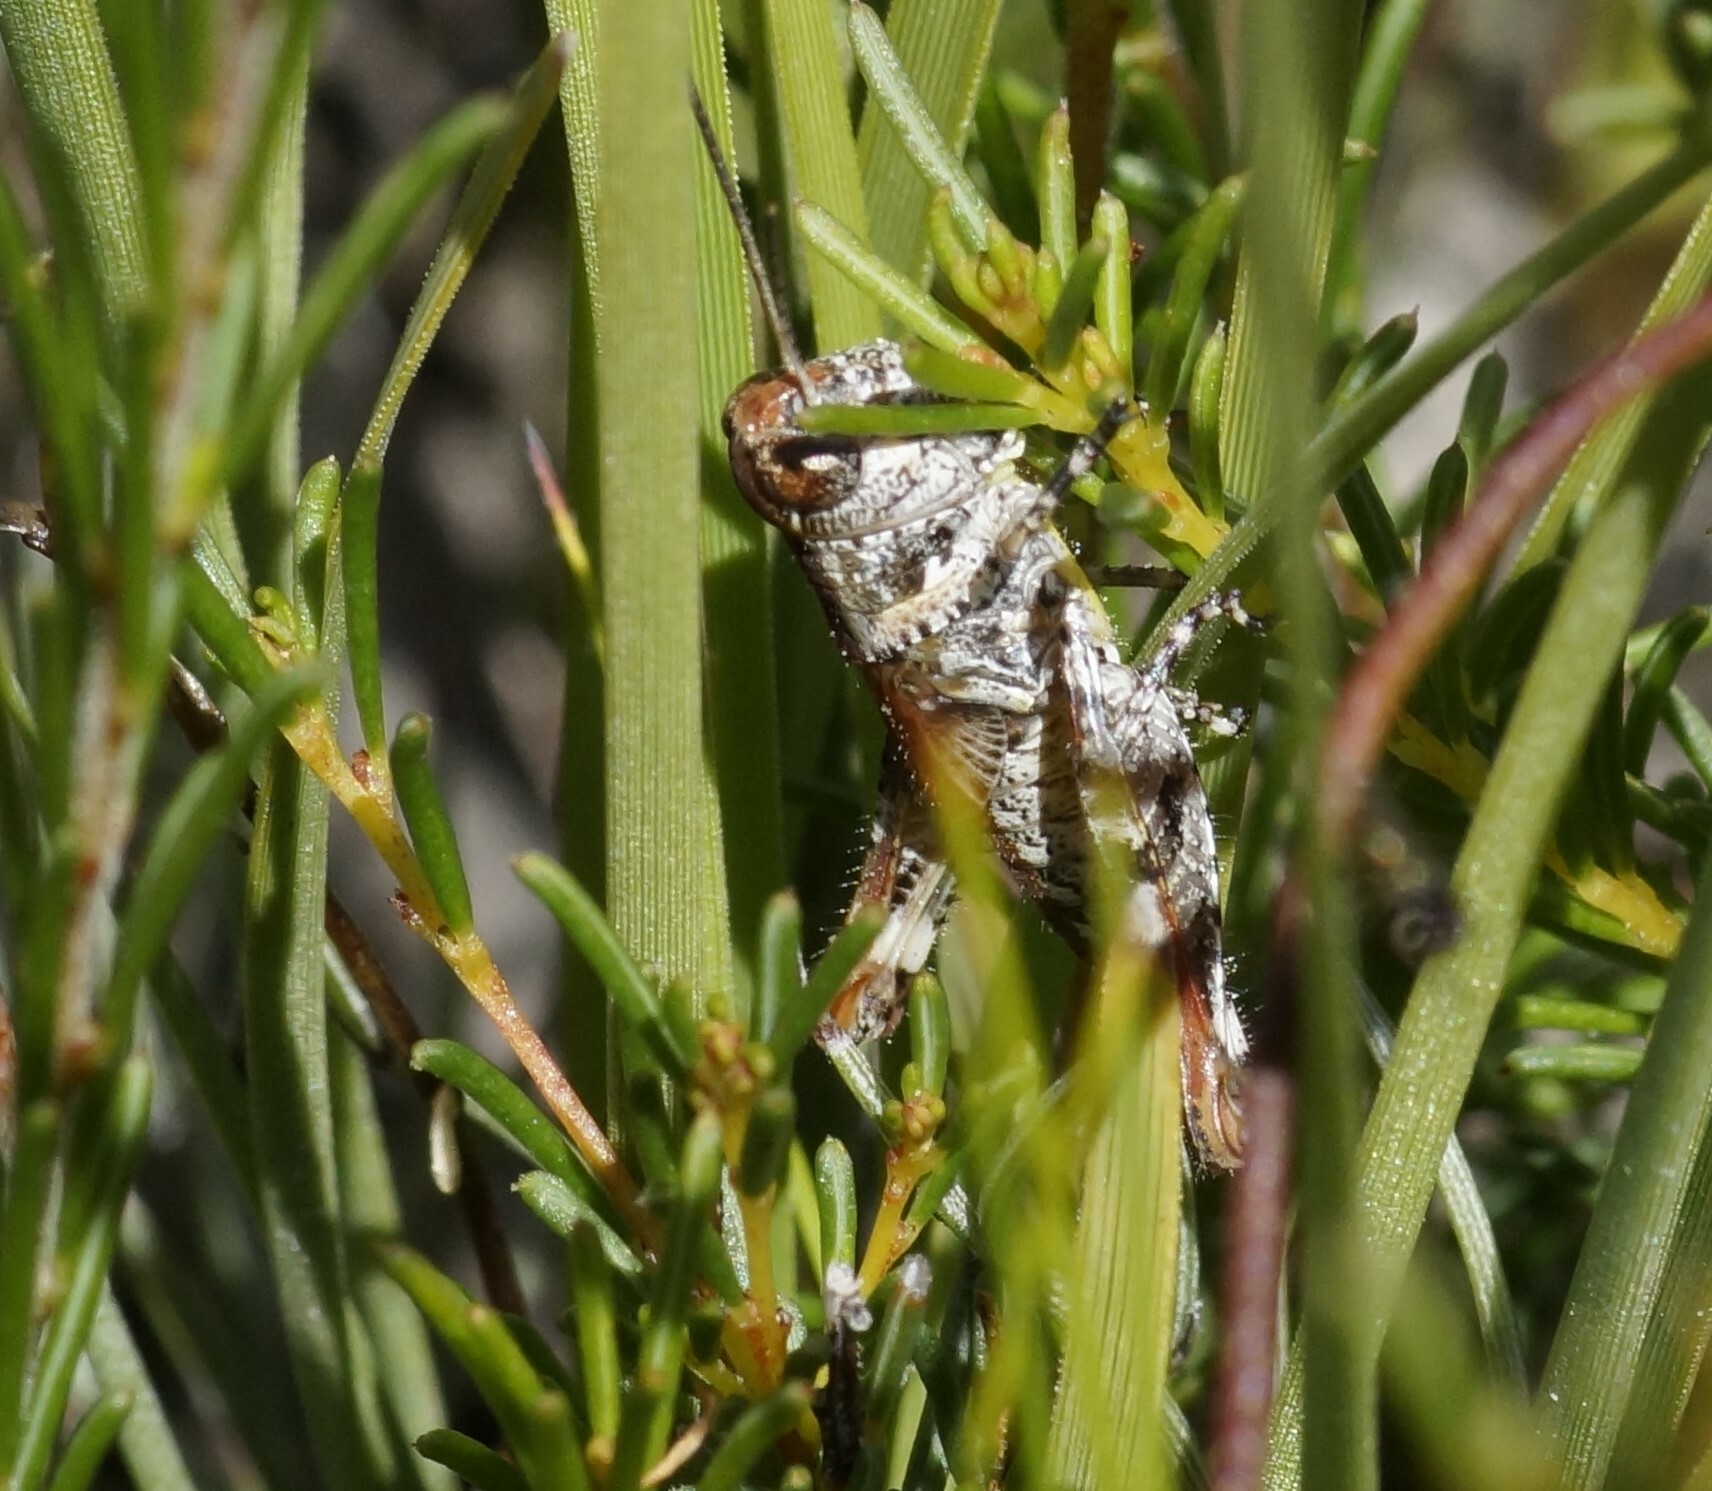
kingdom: Animalia
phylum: Arthropoda
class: Insecta
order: Orthoptera
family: Acrididae
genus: Exarna
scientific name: Exarna includens
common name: Red-legged exarna
